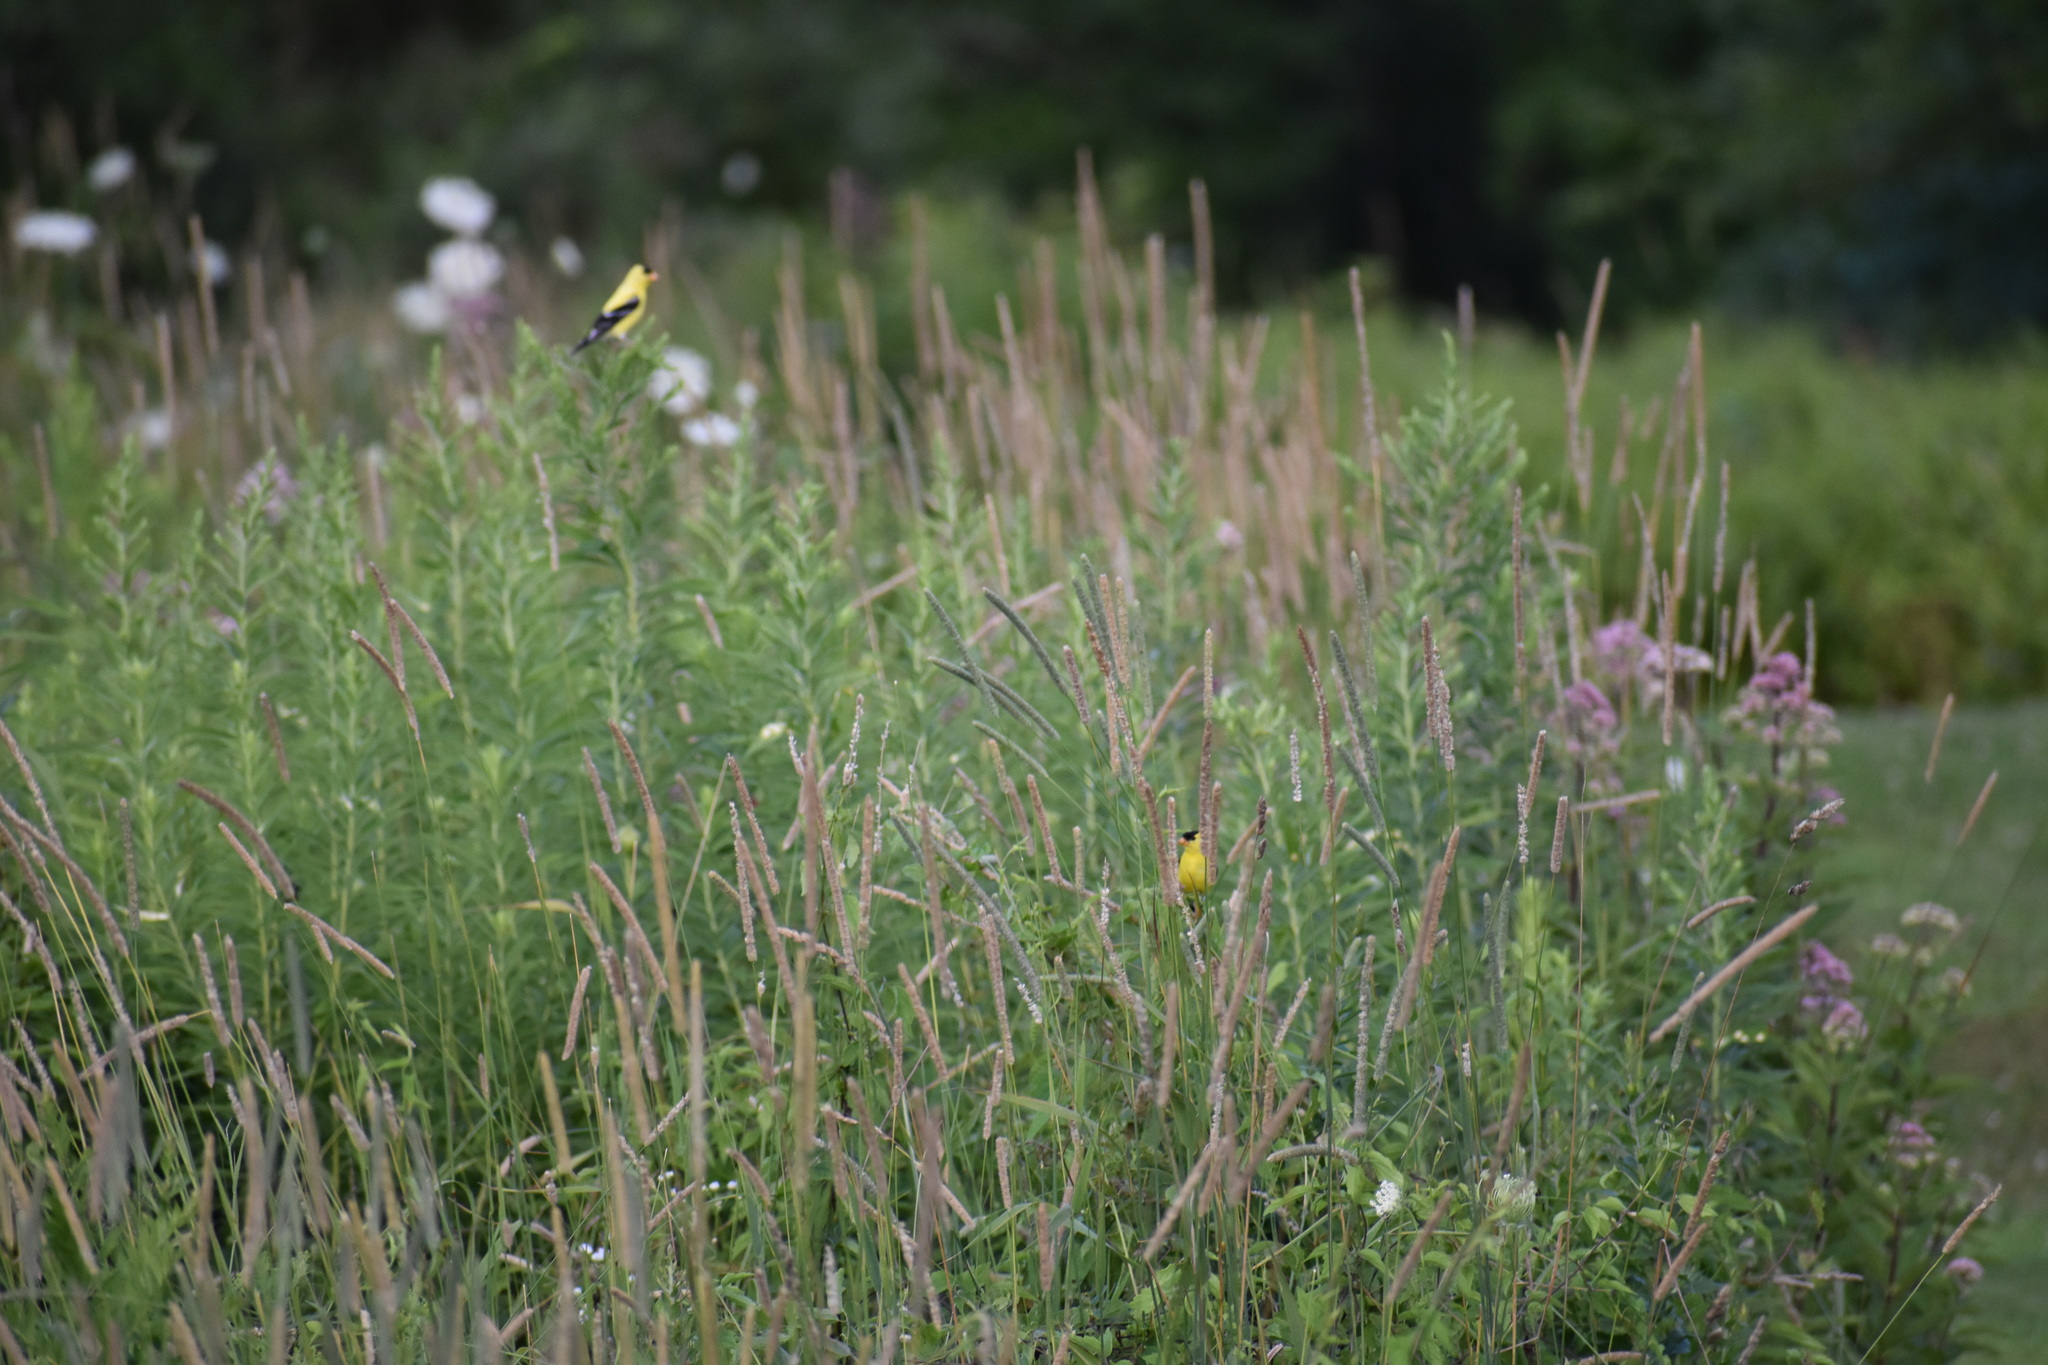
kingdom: Animalia
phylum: Chordata
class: Aves
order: Passeriformes
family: Fringillidae
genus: Spinus
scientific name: Spinus tristis
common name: American goldfinch
